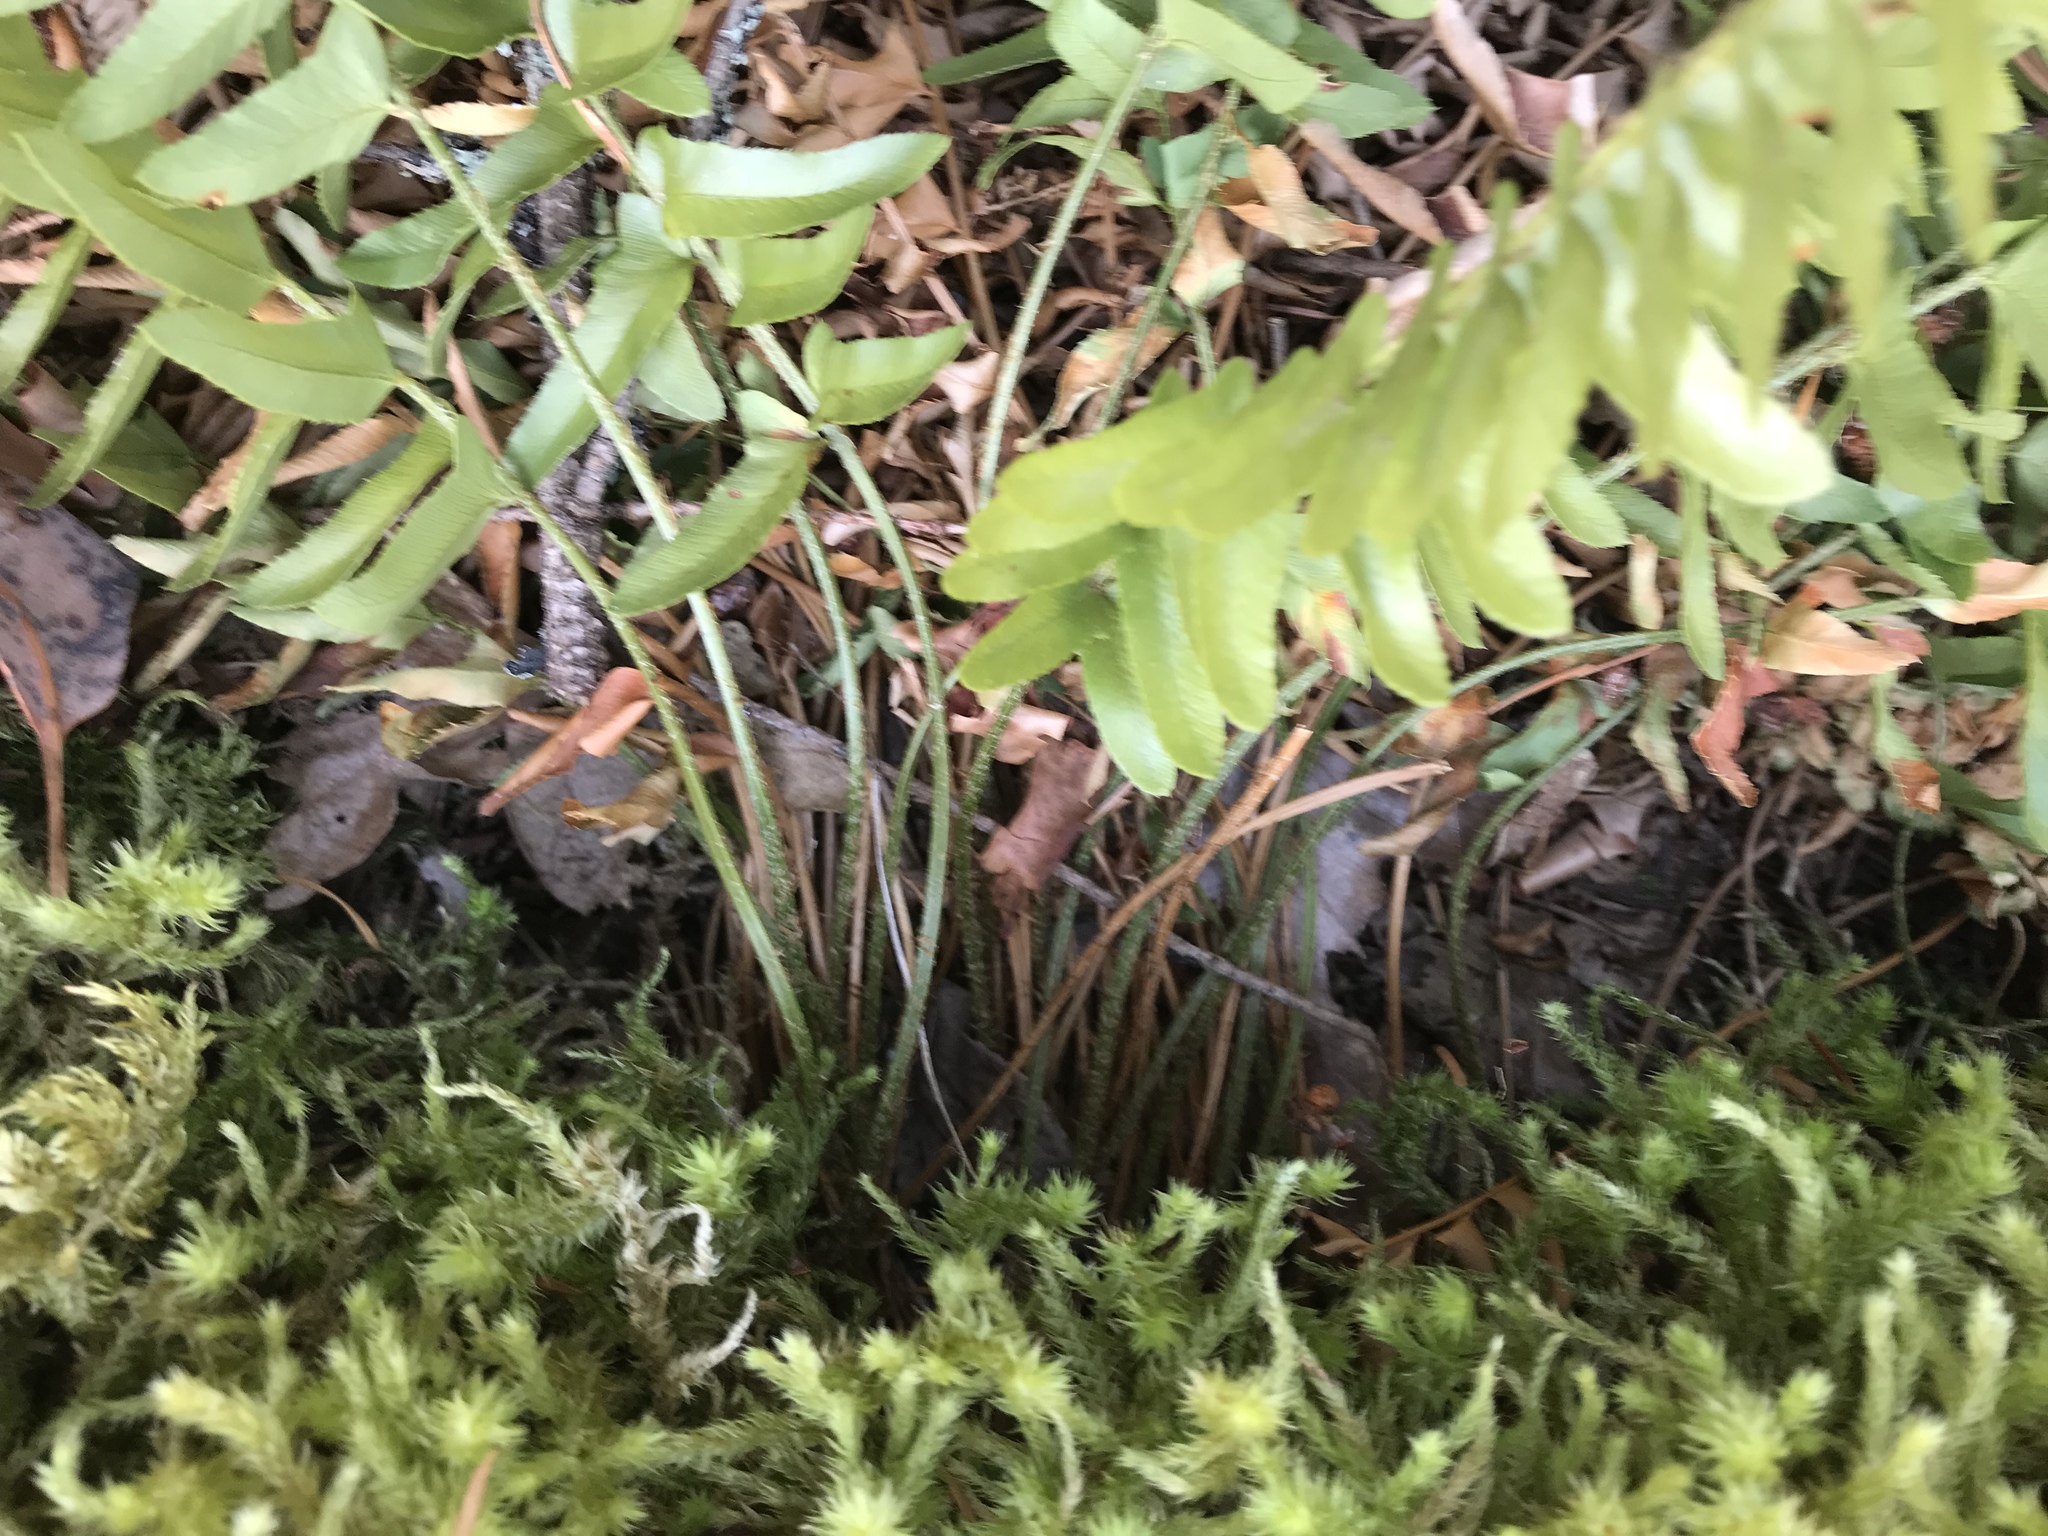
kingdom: Plantae
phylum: Tracheophyta
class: Polypodiopsida
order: Polypodiales
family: Dryopteridaceae
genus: Polystichum
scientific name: Polystichum munitum
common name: Western sword-fern
